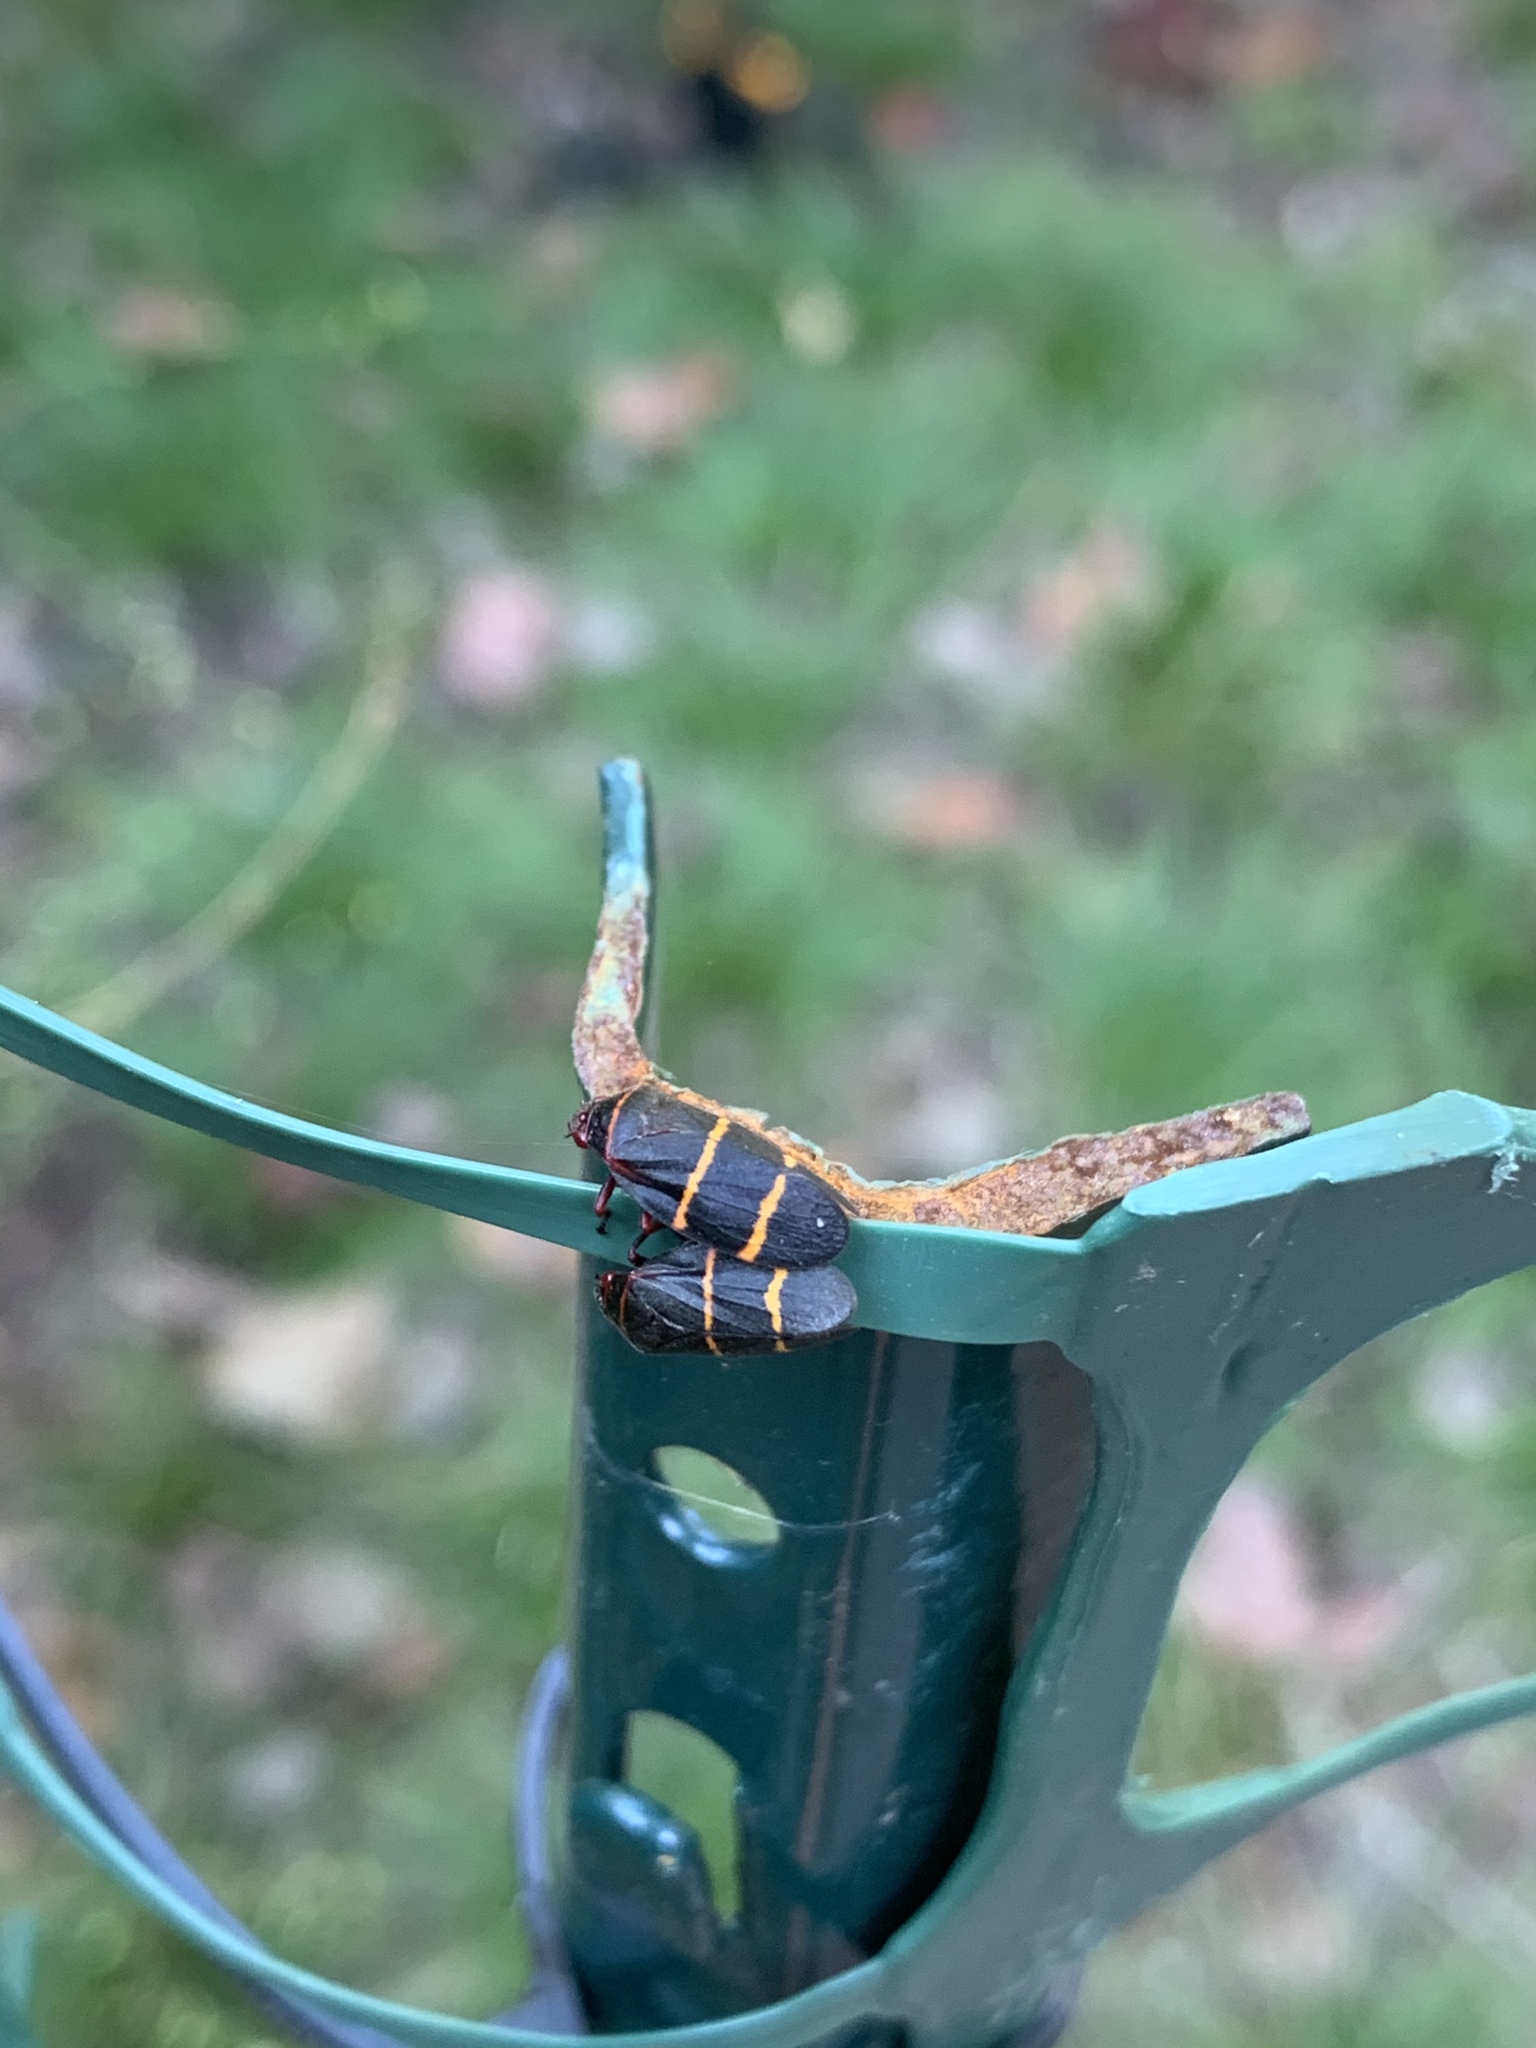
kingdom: Animalia
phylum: Arthropoda
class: Insecta
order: Hemiptera
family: Cercopidae
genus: Prosapia
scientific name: Prosapia bicincta
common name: Twolined spittlebug
